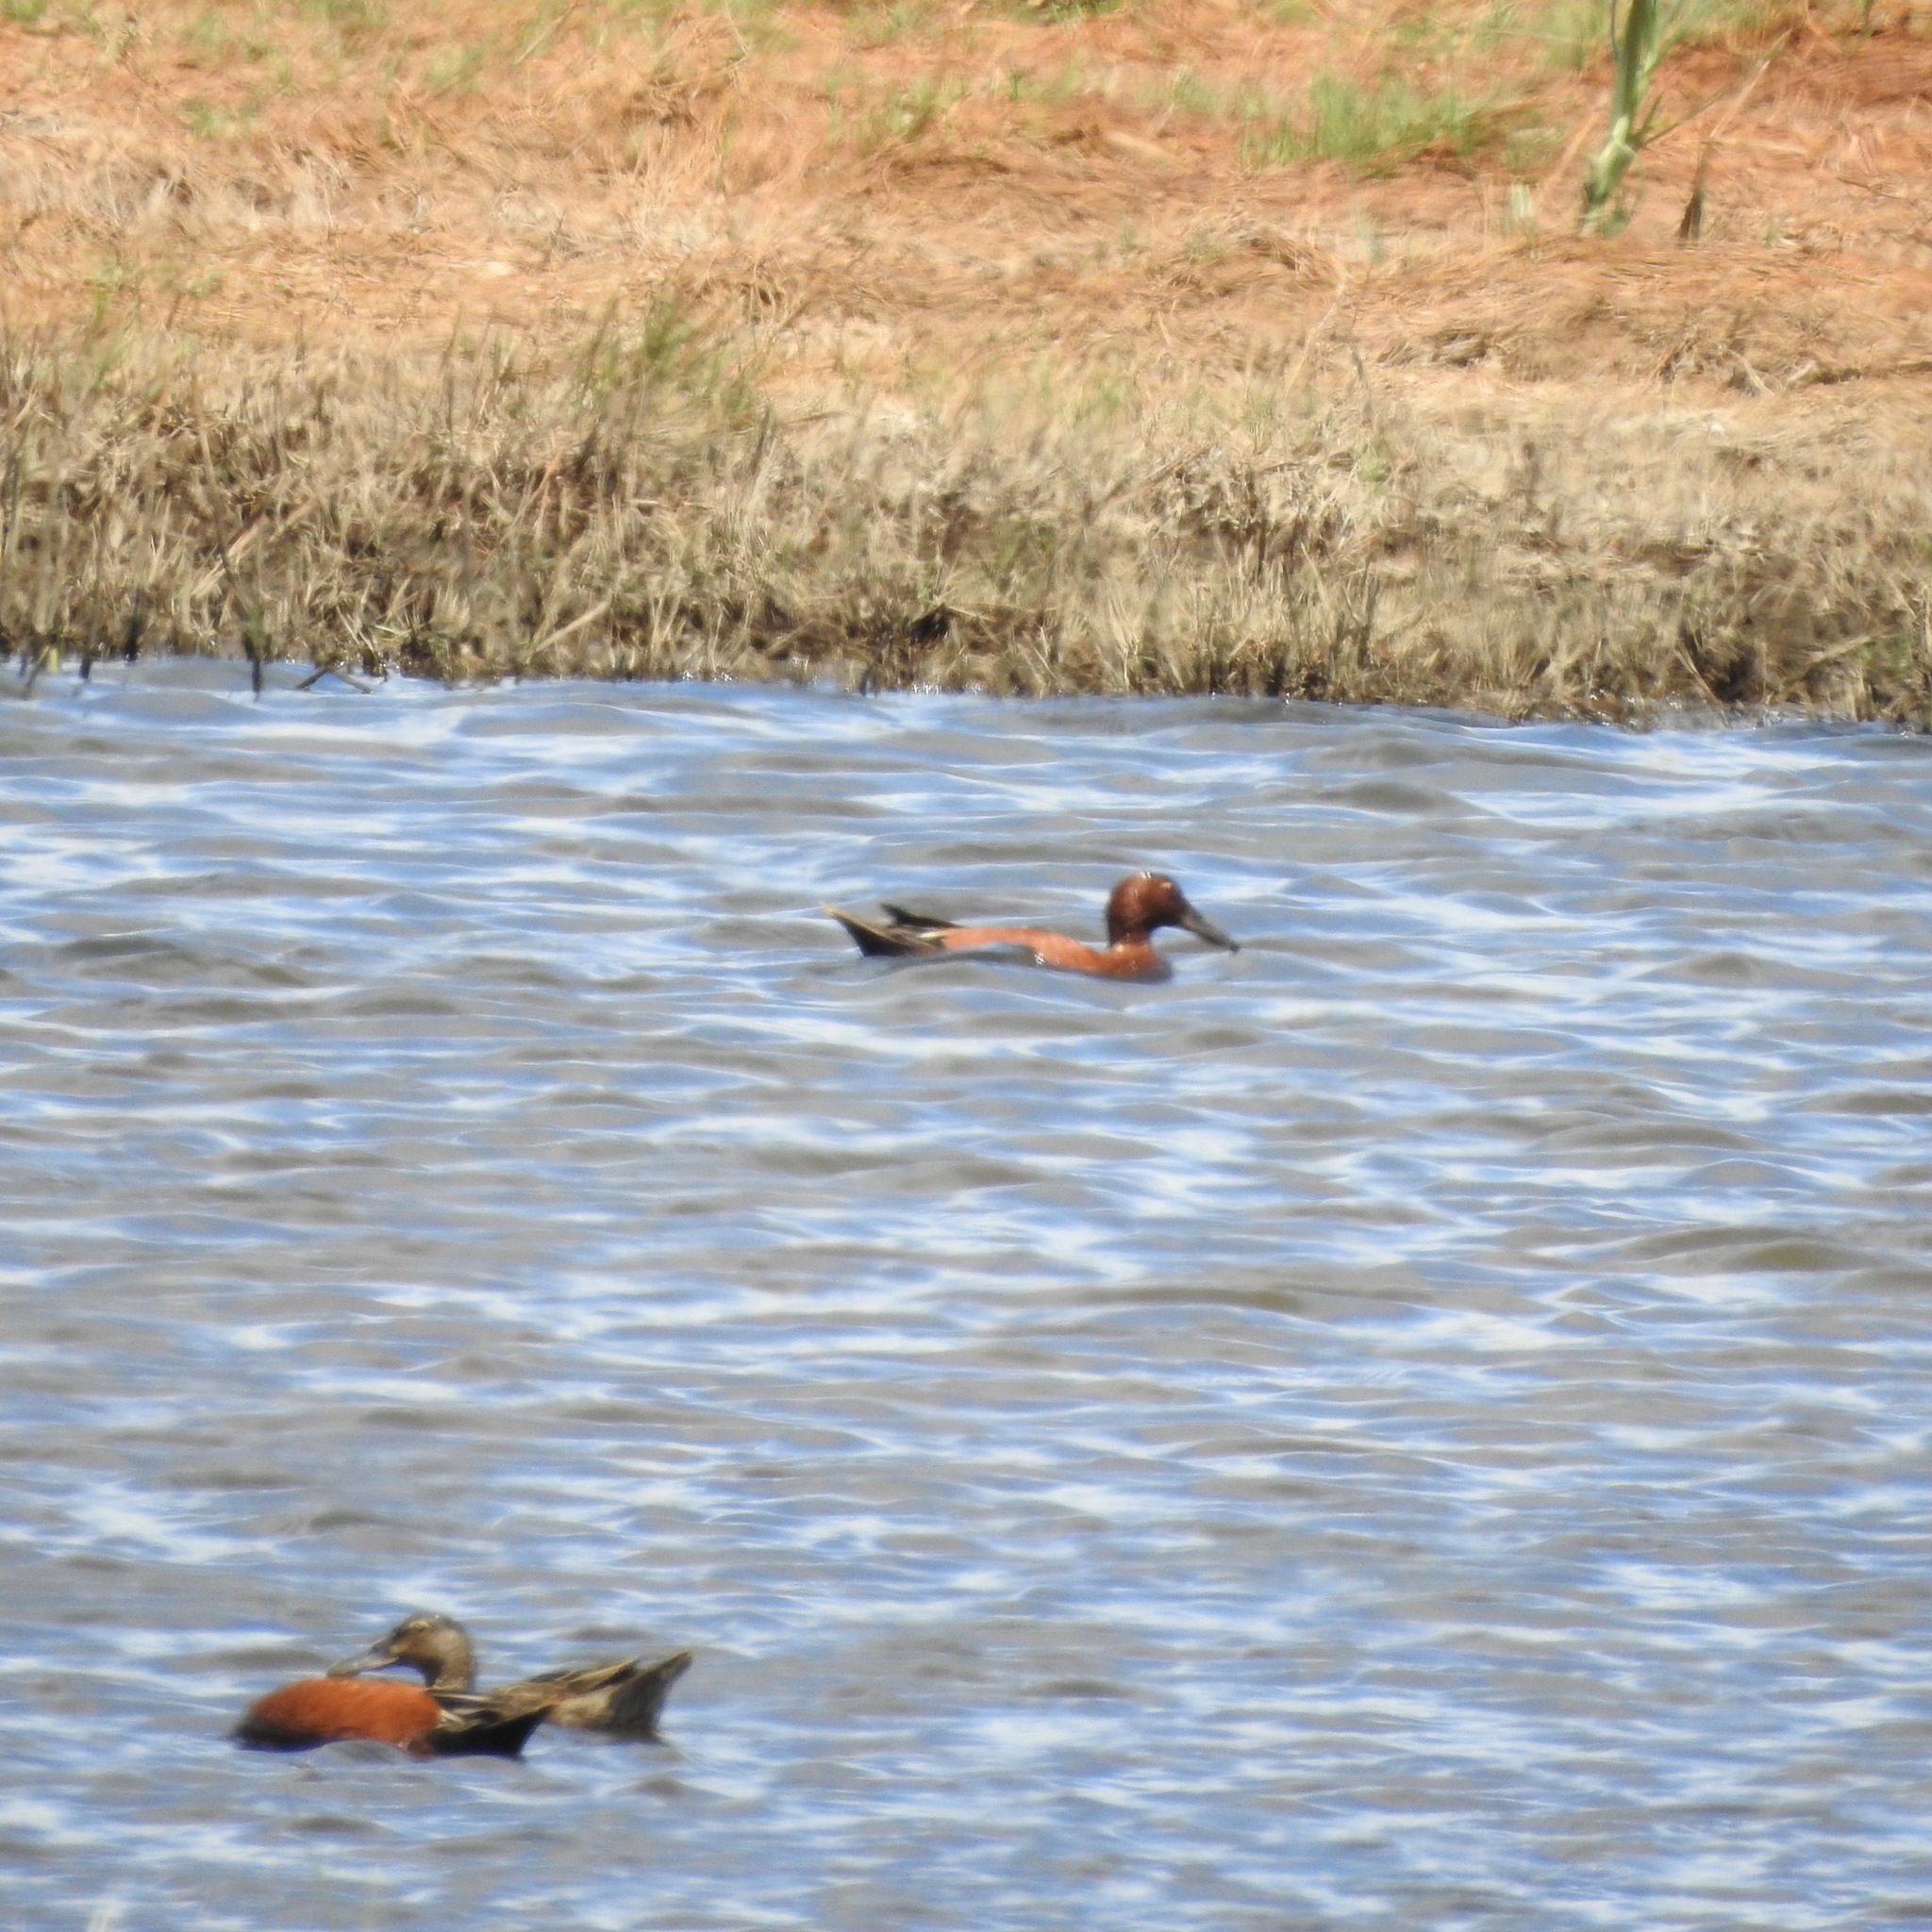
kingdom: Animalia
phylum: Chordata
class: Aves
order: Anseriformes
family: Anatidae
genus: Spatula
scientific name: Spatula cyanoptera
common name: Cinnamon teal
